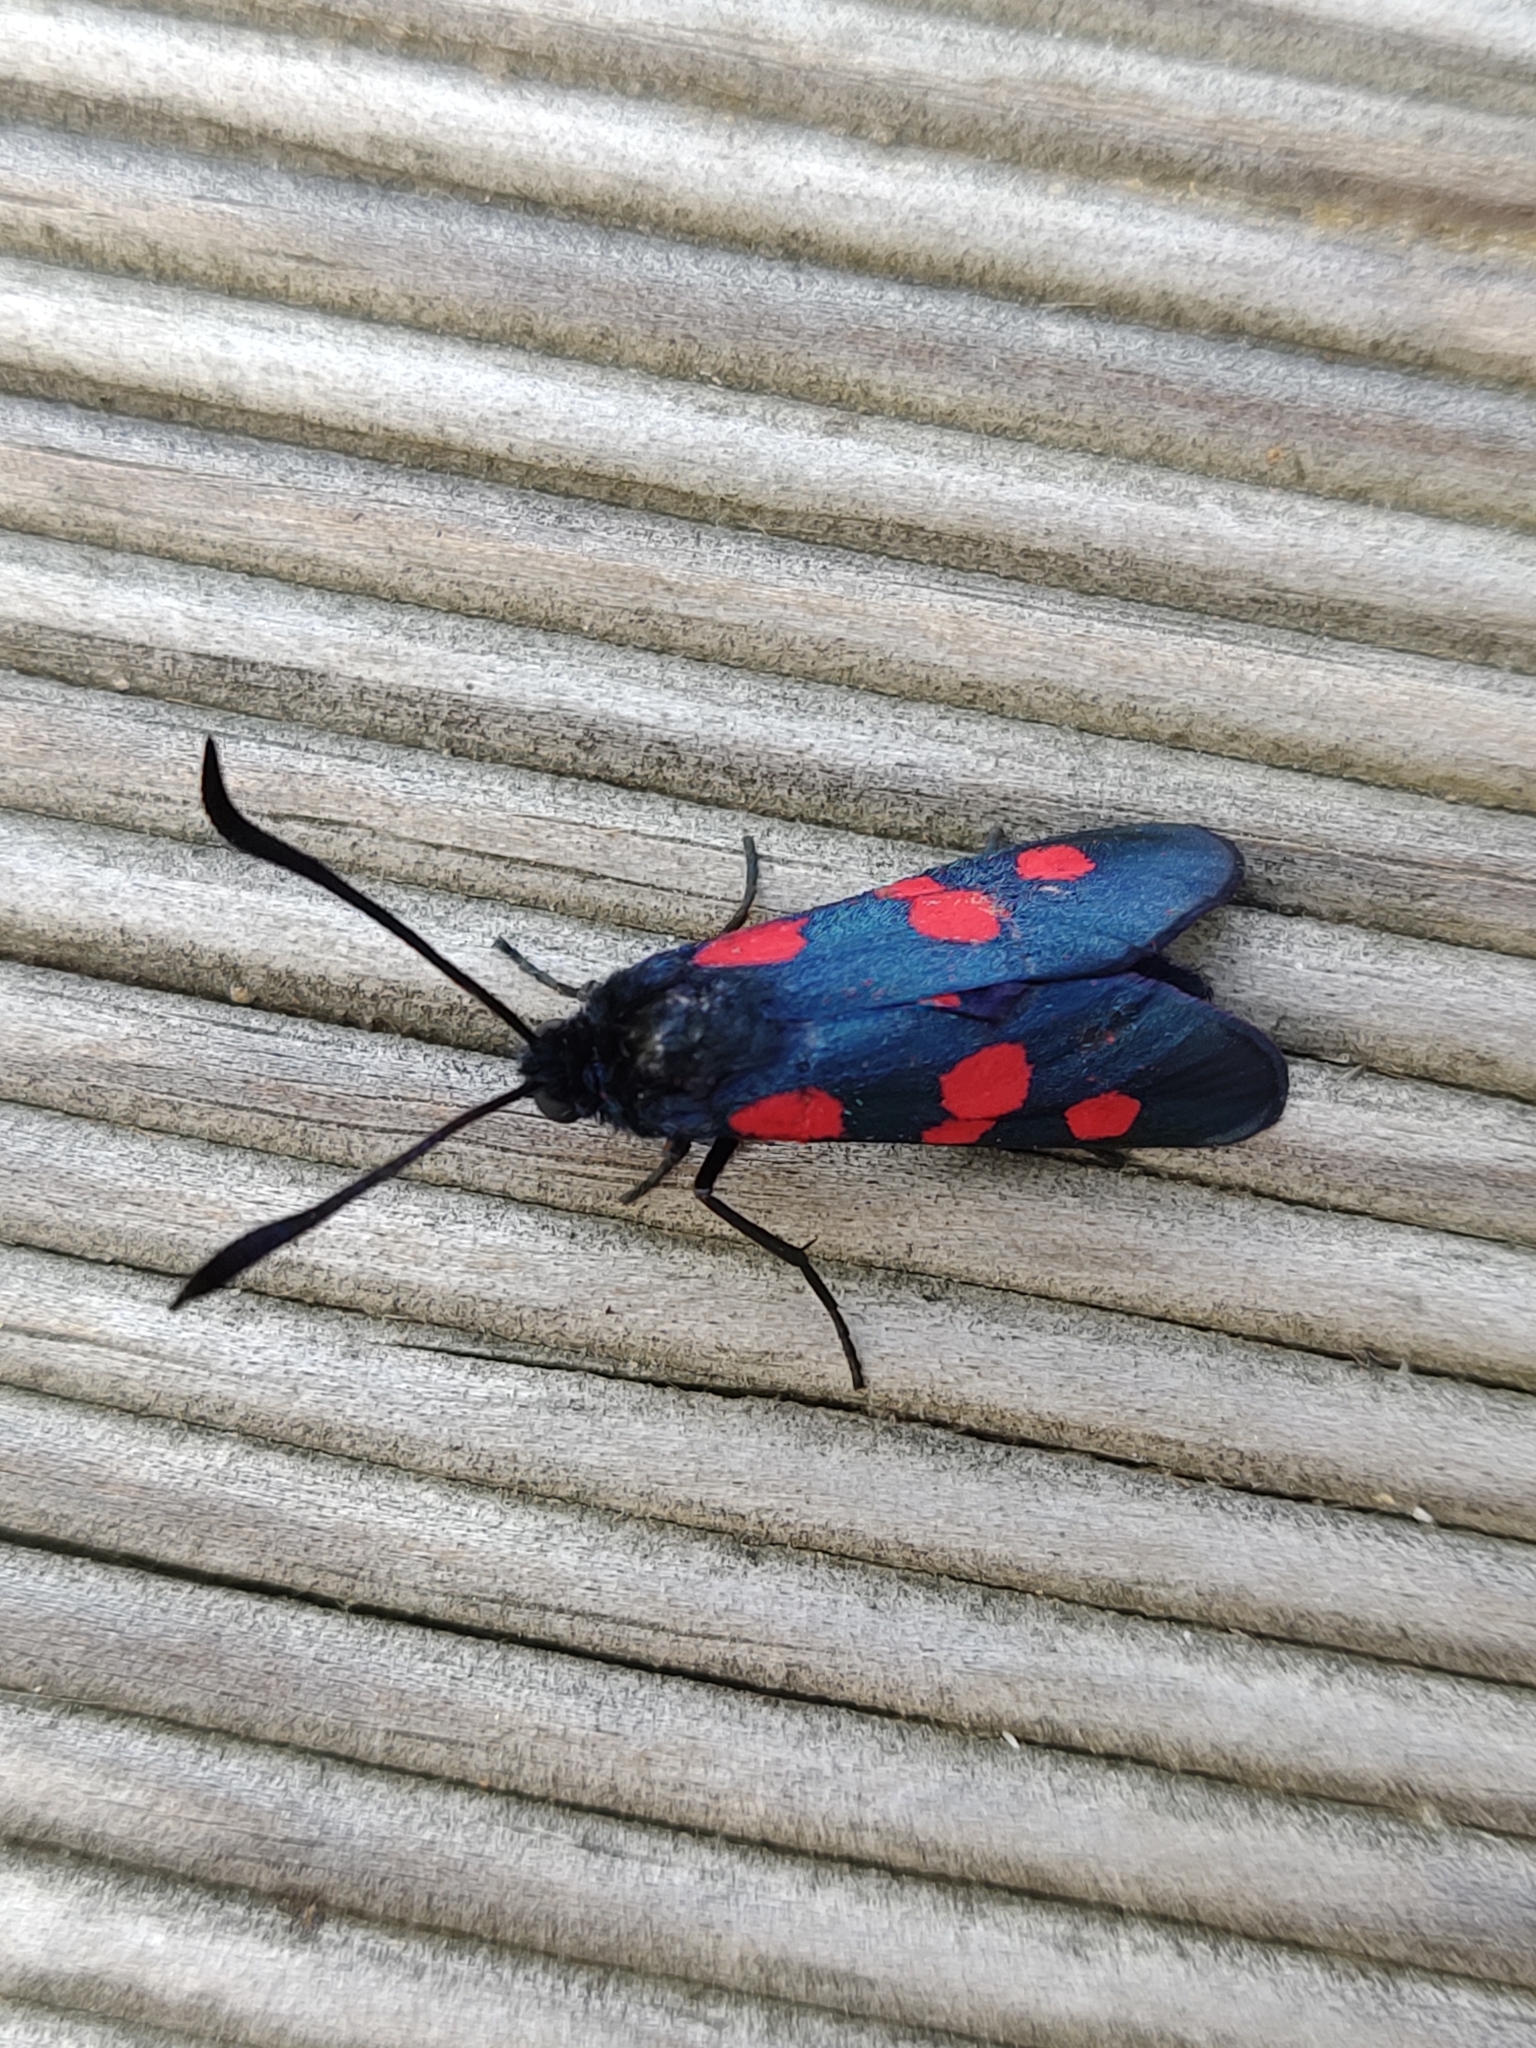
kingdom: Animalia
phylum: Arthropoda
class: Insecta
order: Lepidoptera
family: Zygaenidae
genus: Zygaena
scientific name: Zygaena trifolii
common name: Five-spot burnet
